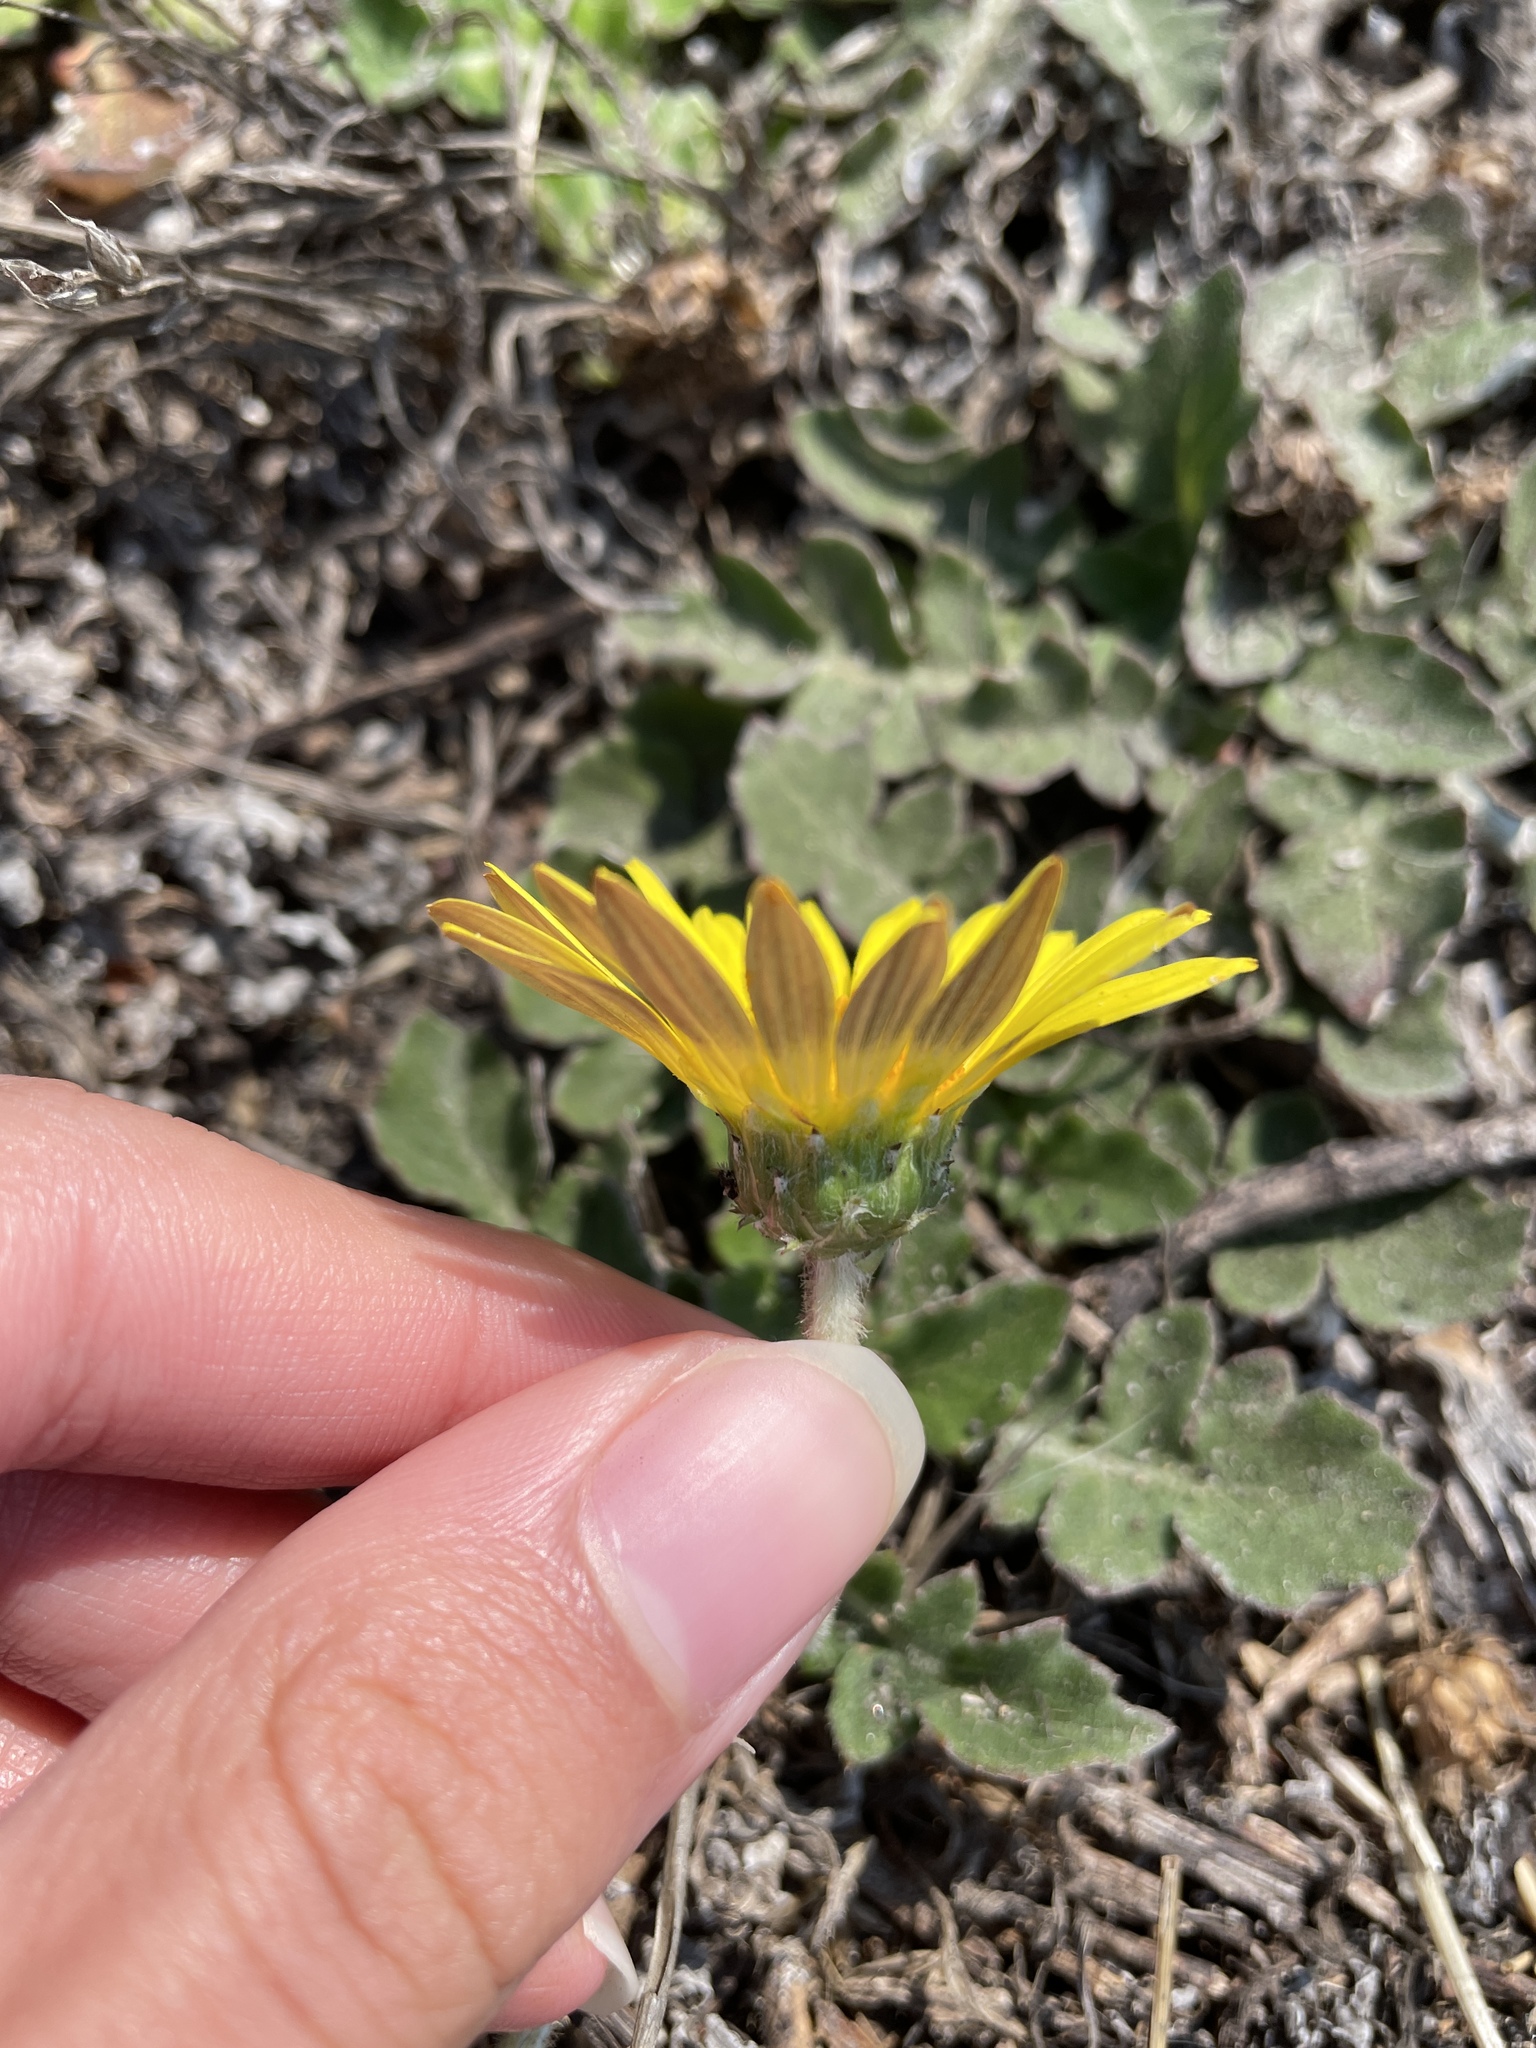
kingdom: Plantae
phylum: Tracheophyta
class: Magnoliopsida
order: Asterales
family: Asteraceae
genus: Arctotheca
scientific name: Arctotheca prostrata
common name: Capeweed
